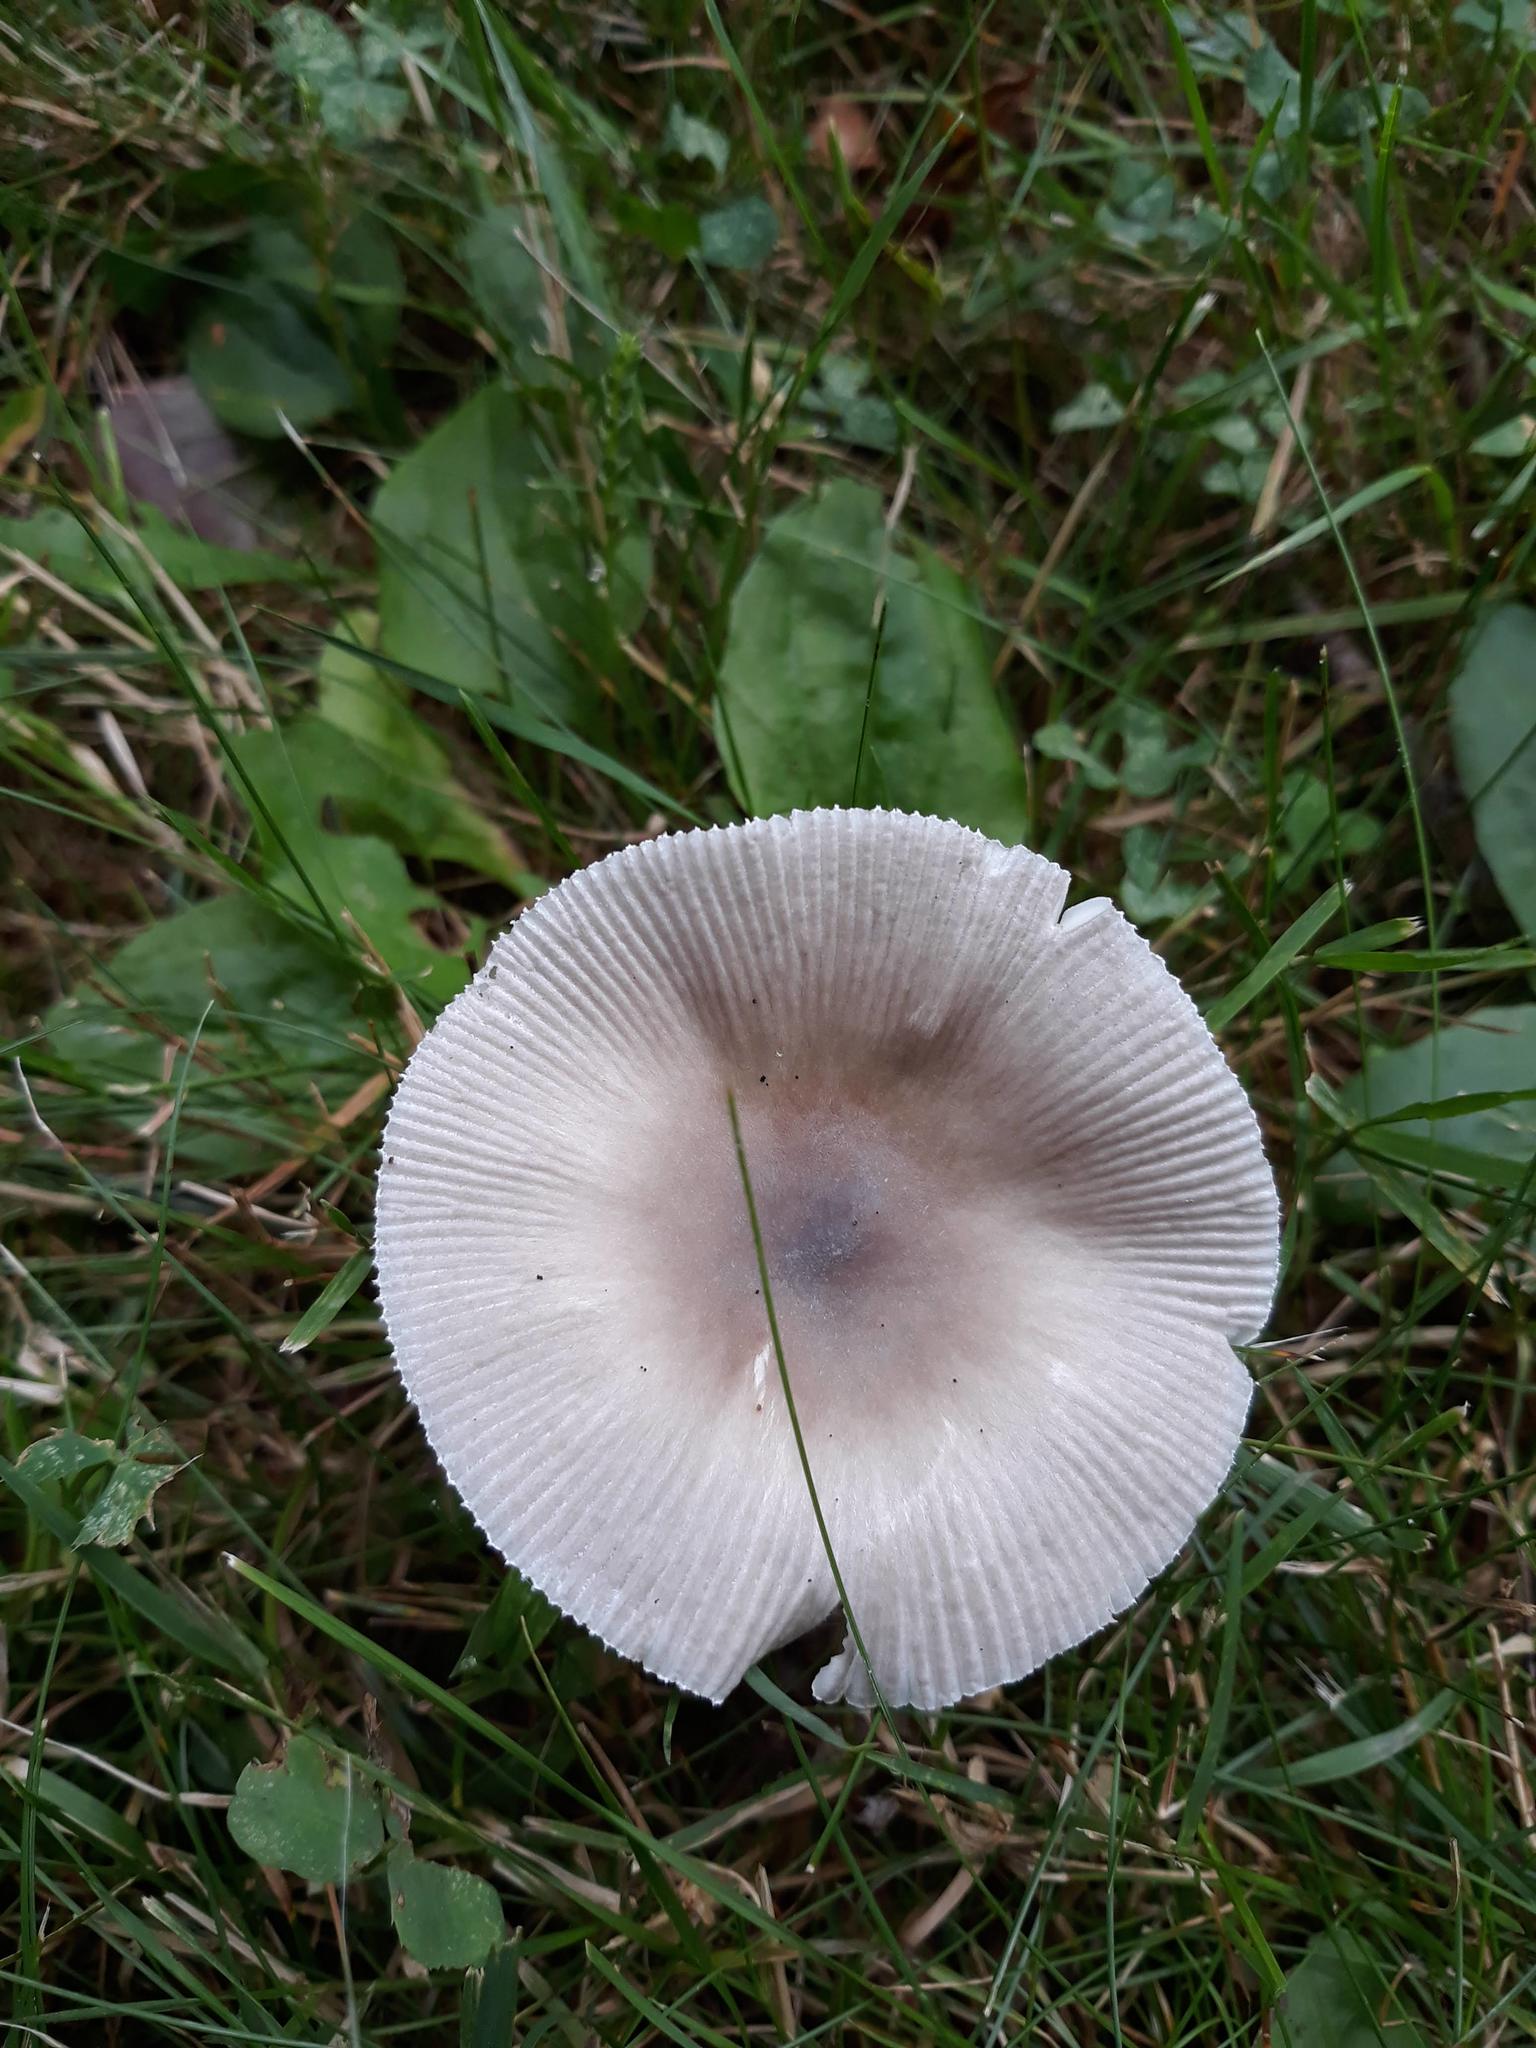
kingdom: Fungi
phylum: Basidiomycota
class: Agaricomycetes
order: Agaricales
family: Amanitaceae
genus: Amanita
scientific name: Amanita
